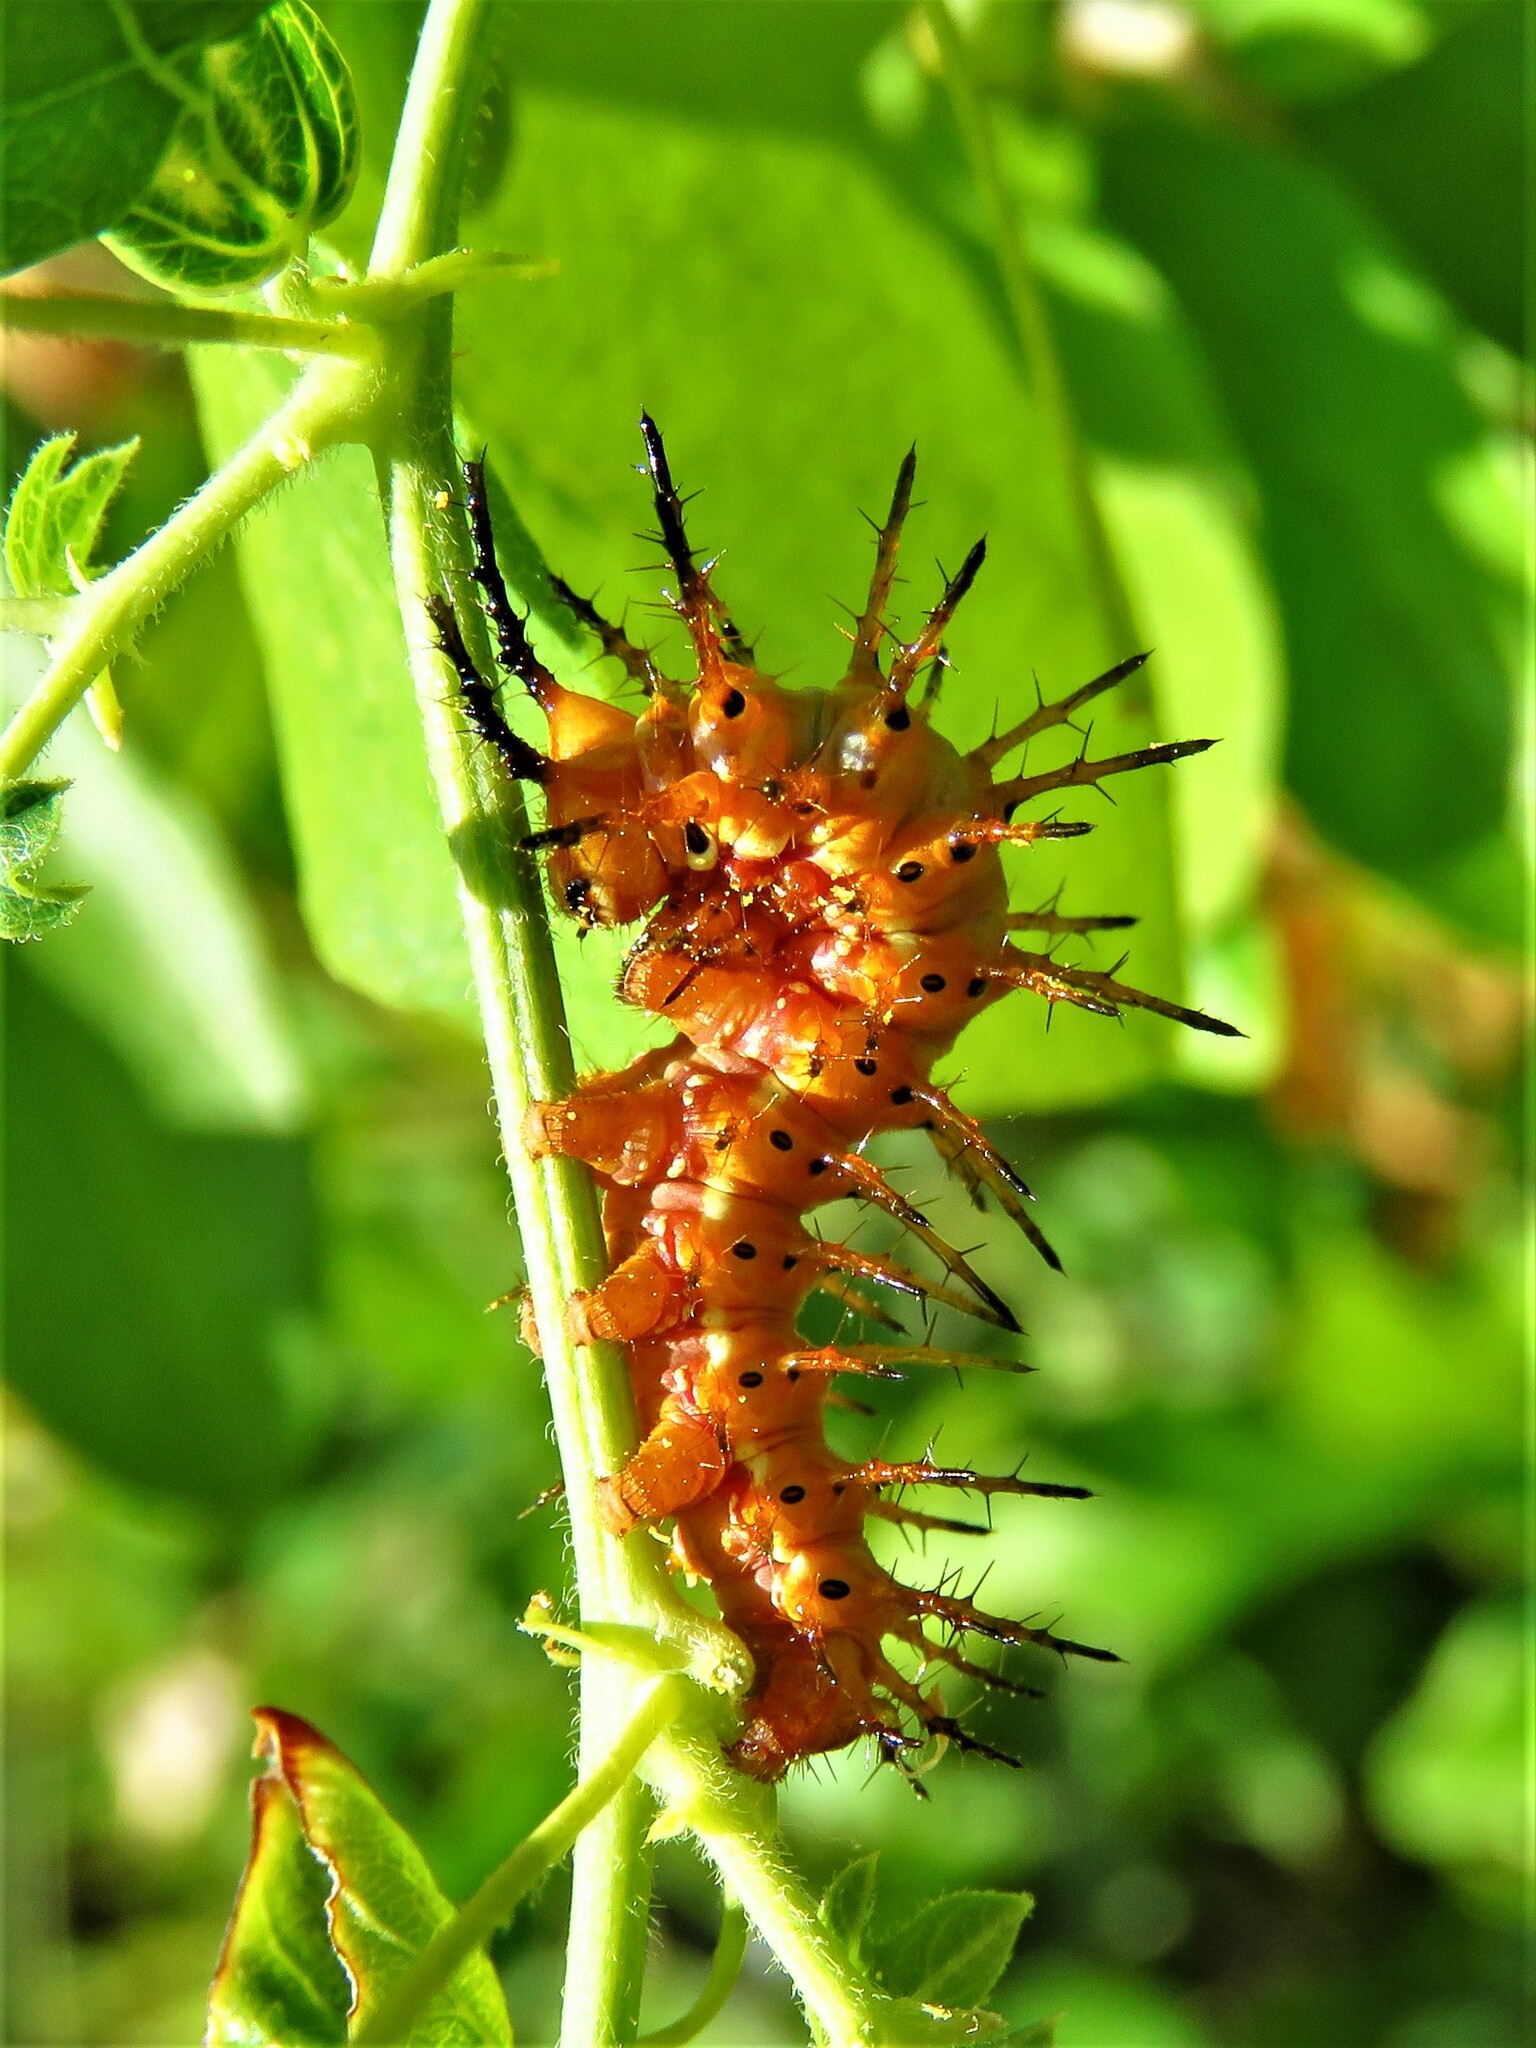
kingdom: Animalia
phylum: Arthropoda
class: Insecta
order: Lepidoptera
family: Nymphalidae
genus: Dione
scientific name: Dione vanillae
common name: Gulf fritillary
